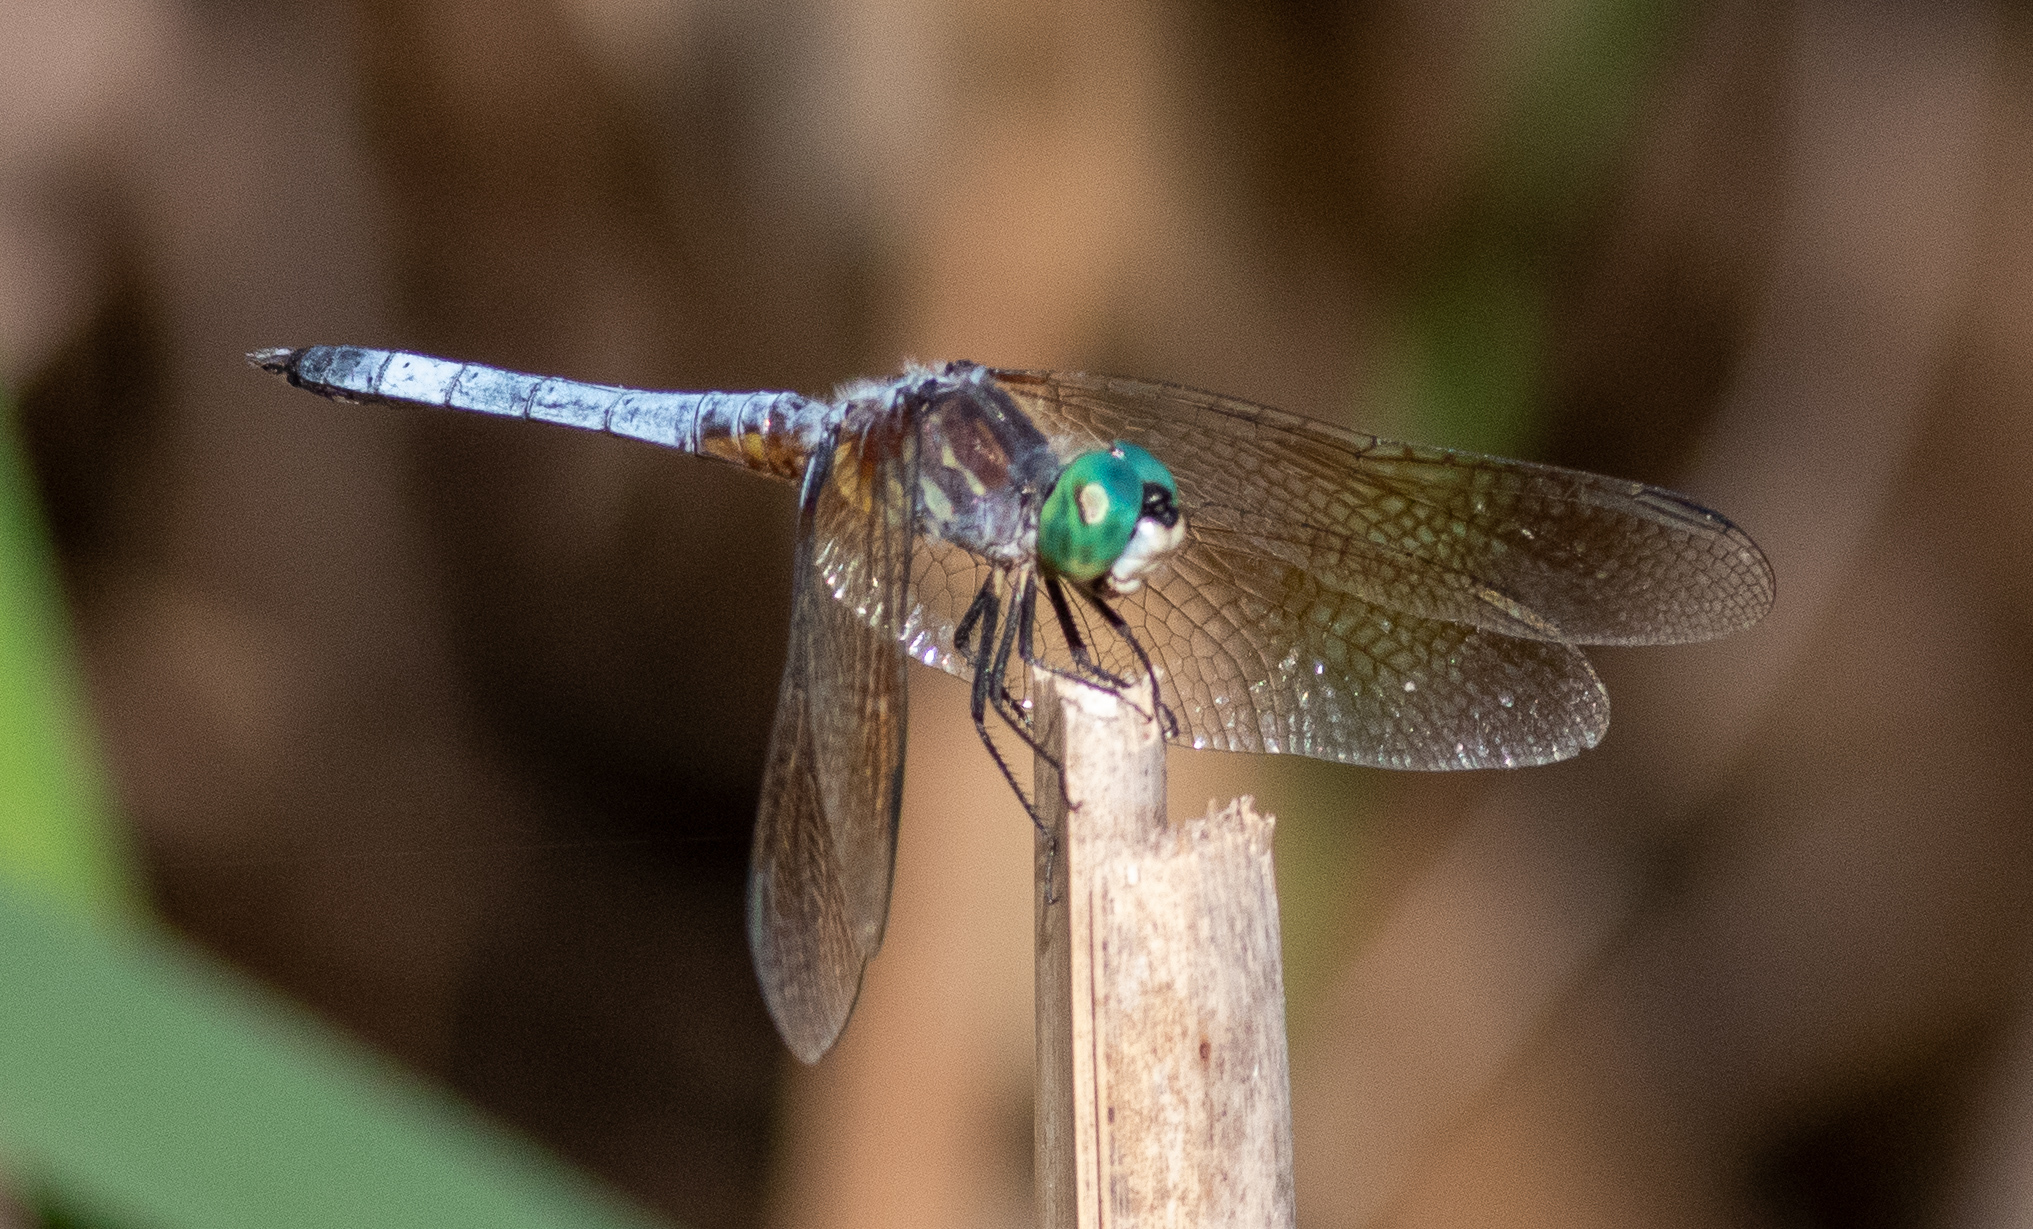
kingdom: Animalia
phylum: Arthropoda
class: Insecta
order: Odonata
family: Libellulidae
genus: Pachydiplax
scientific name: Pachydiplax longipennis
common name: Blue dasher
